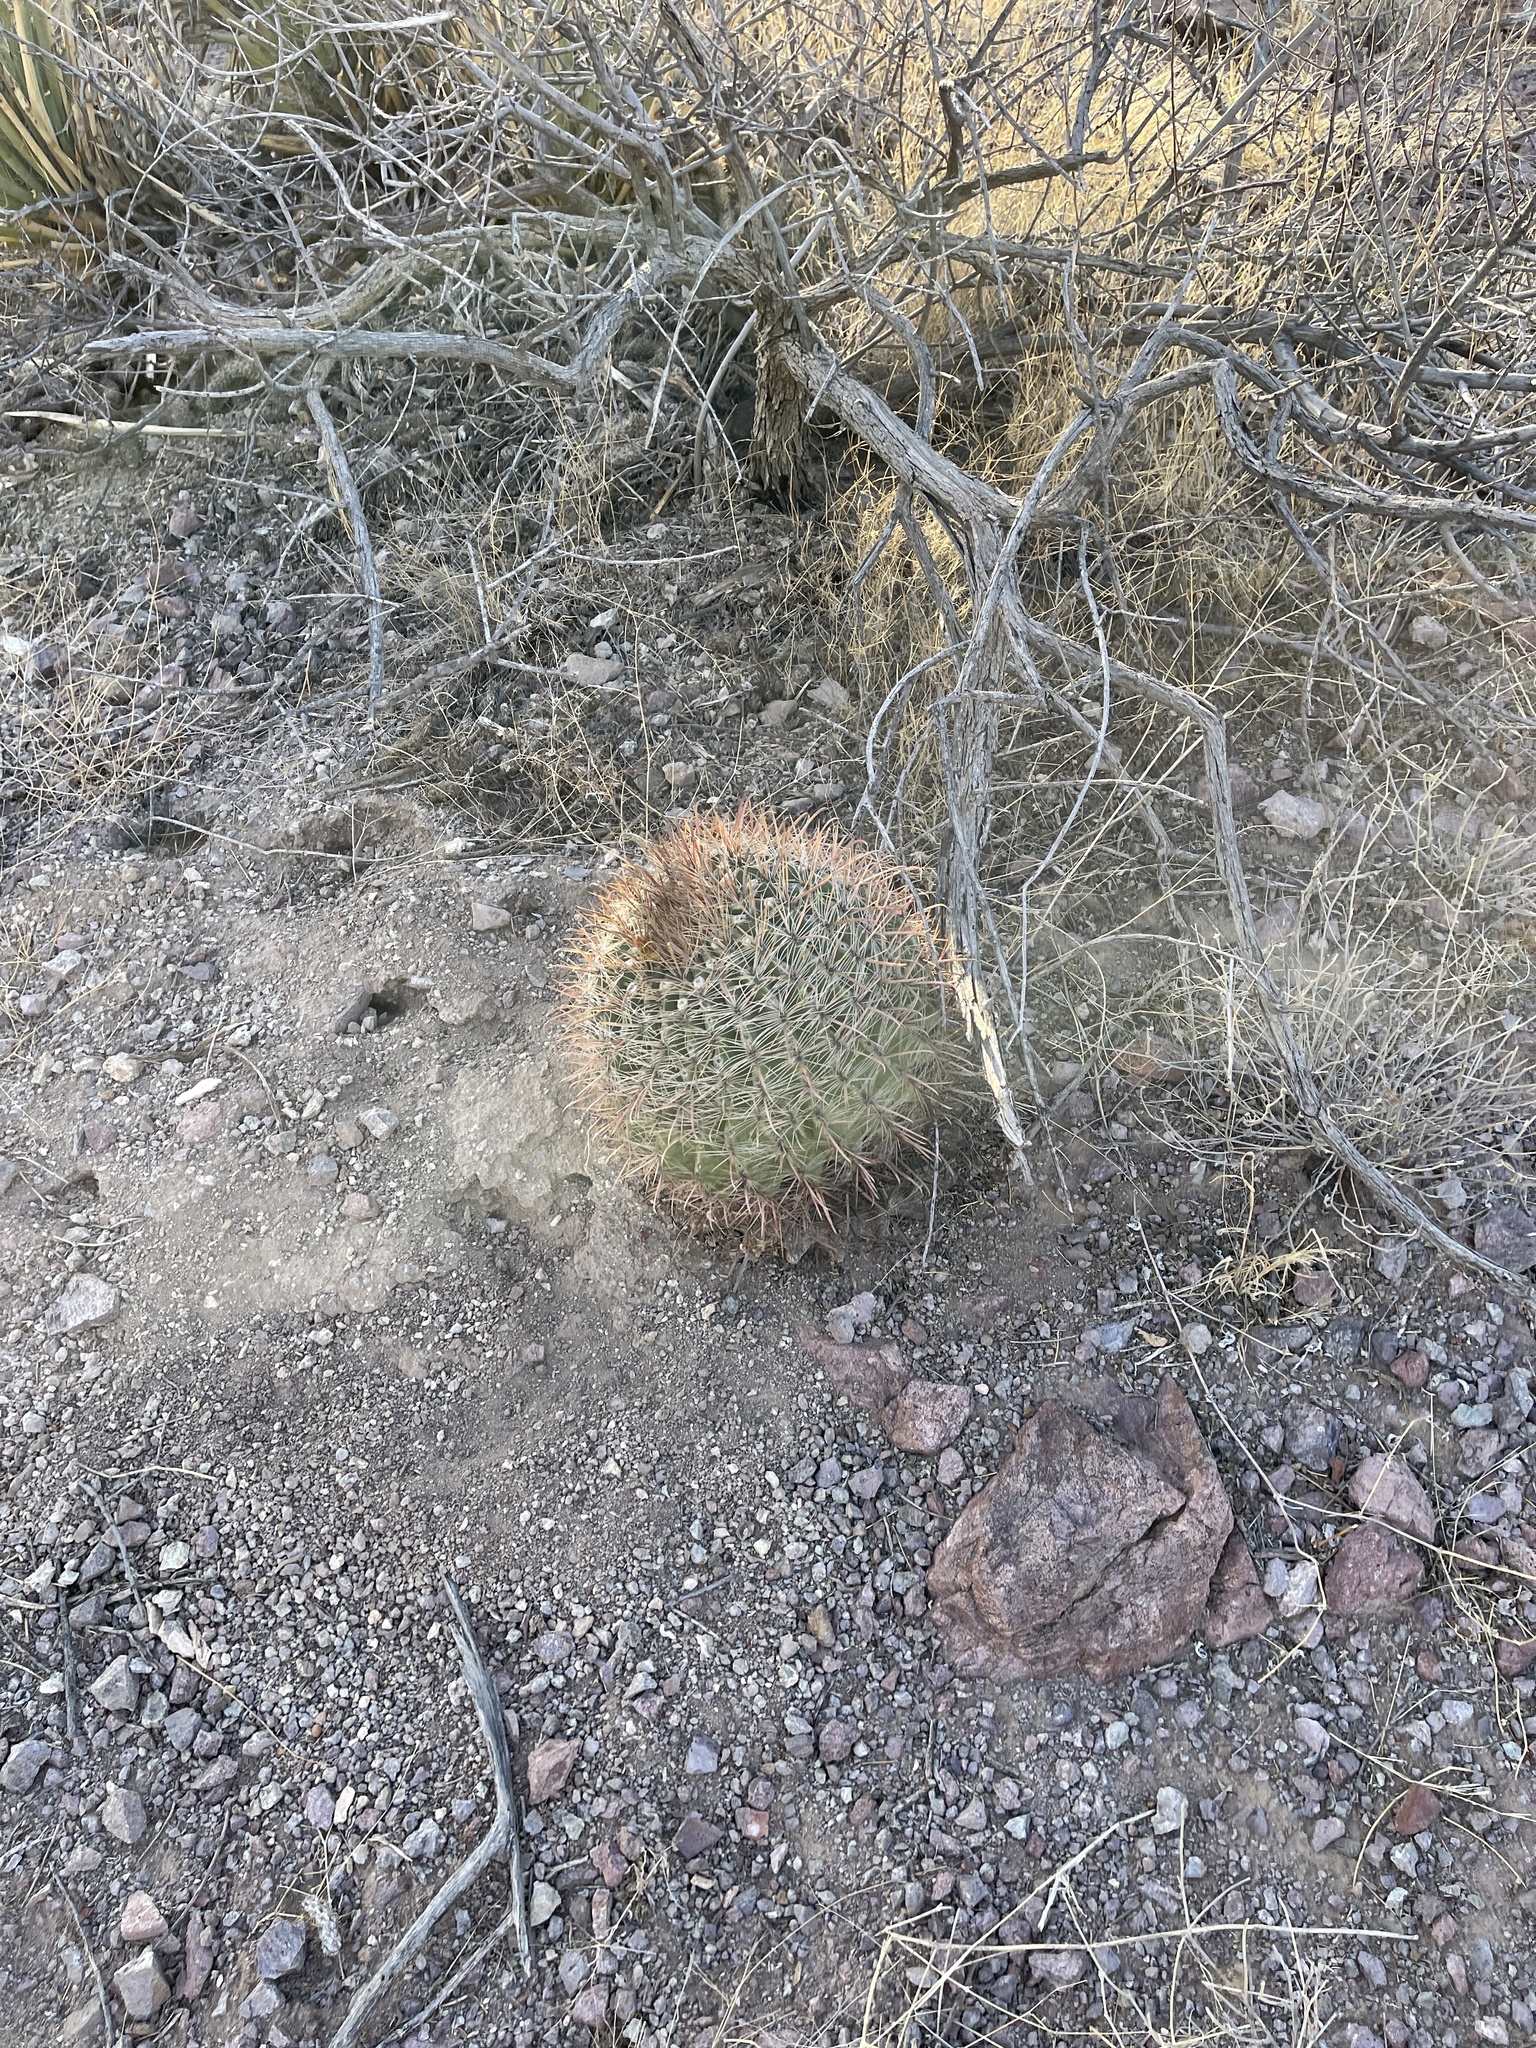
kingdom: Plantae
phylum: Tracheophyta
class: Magnoliopsida
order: Caryophyllales
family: Cactaceae
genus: Ferocactus
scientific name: Ferocactus wislizeni
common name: Candy barrel cactus
